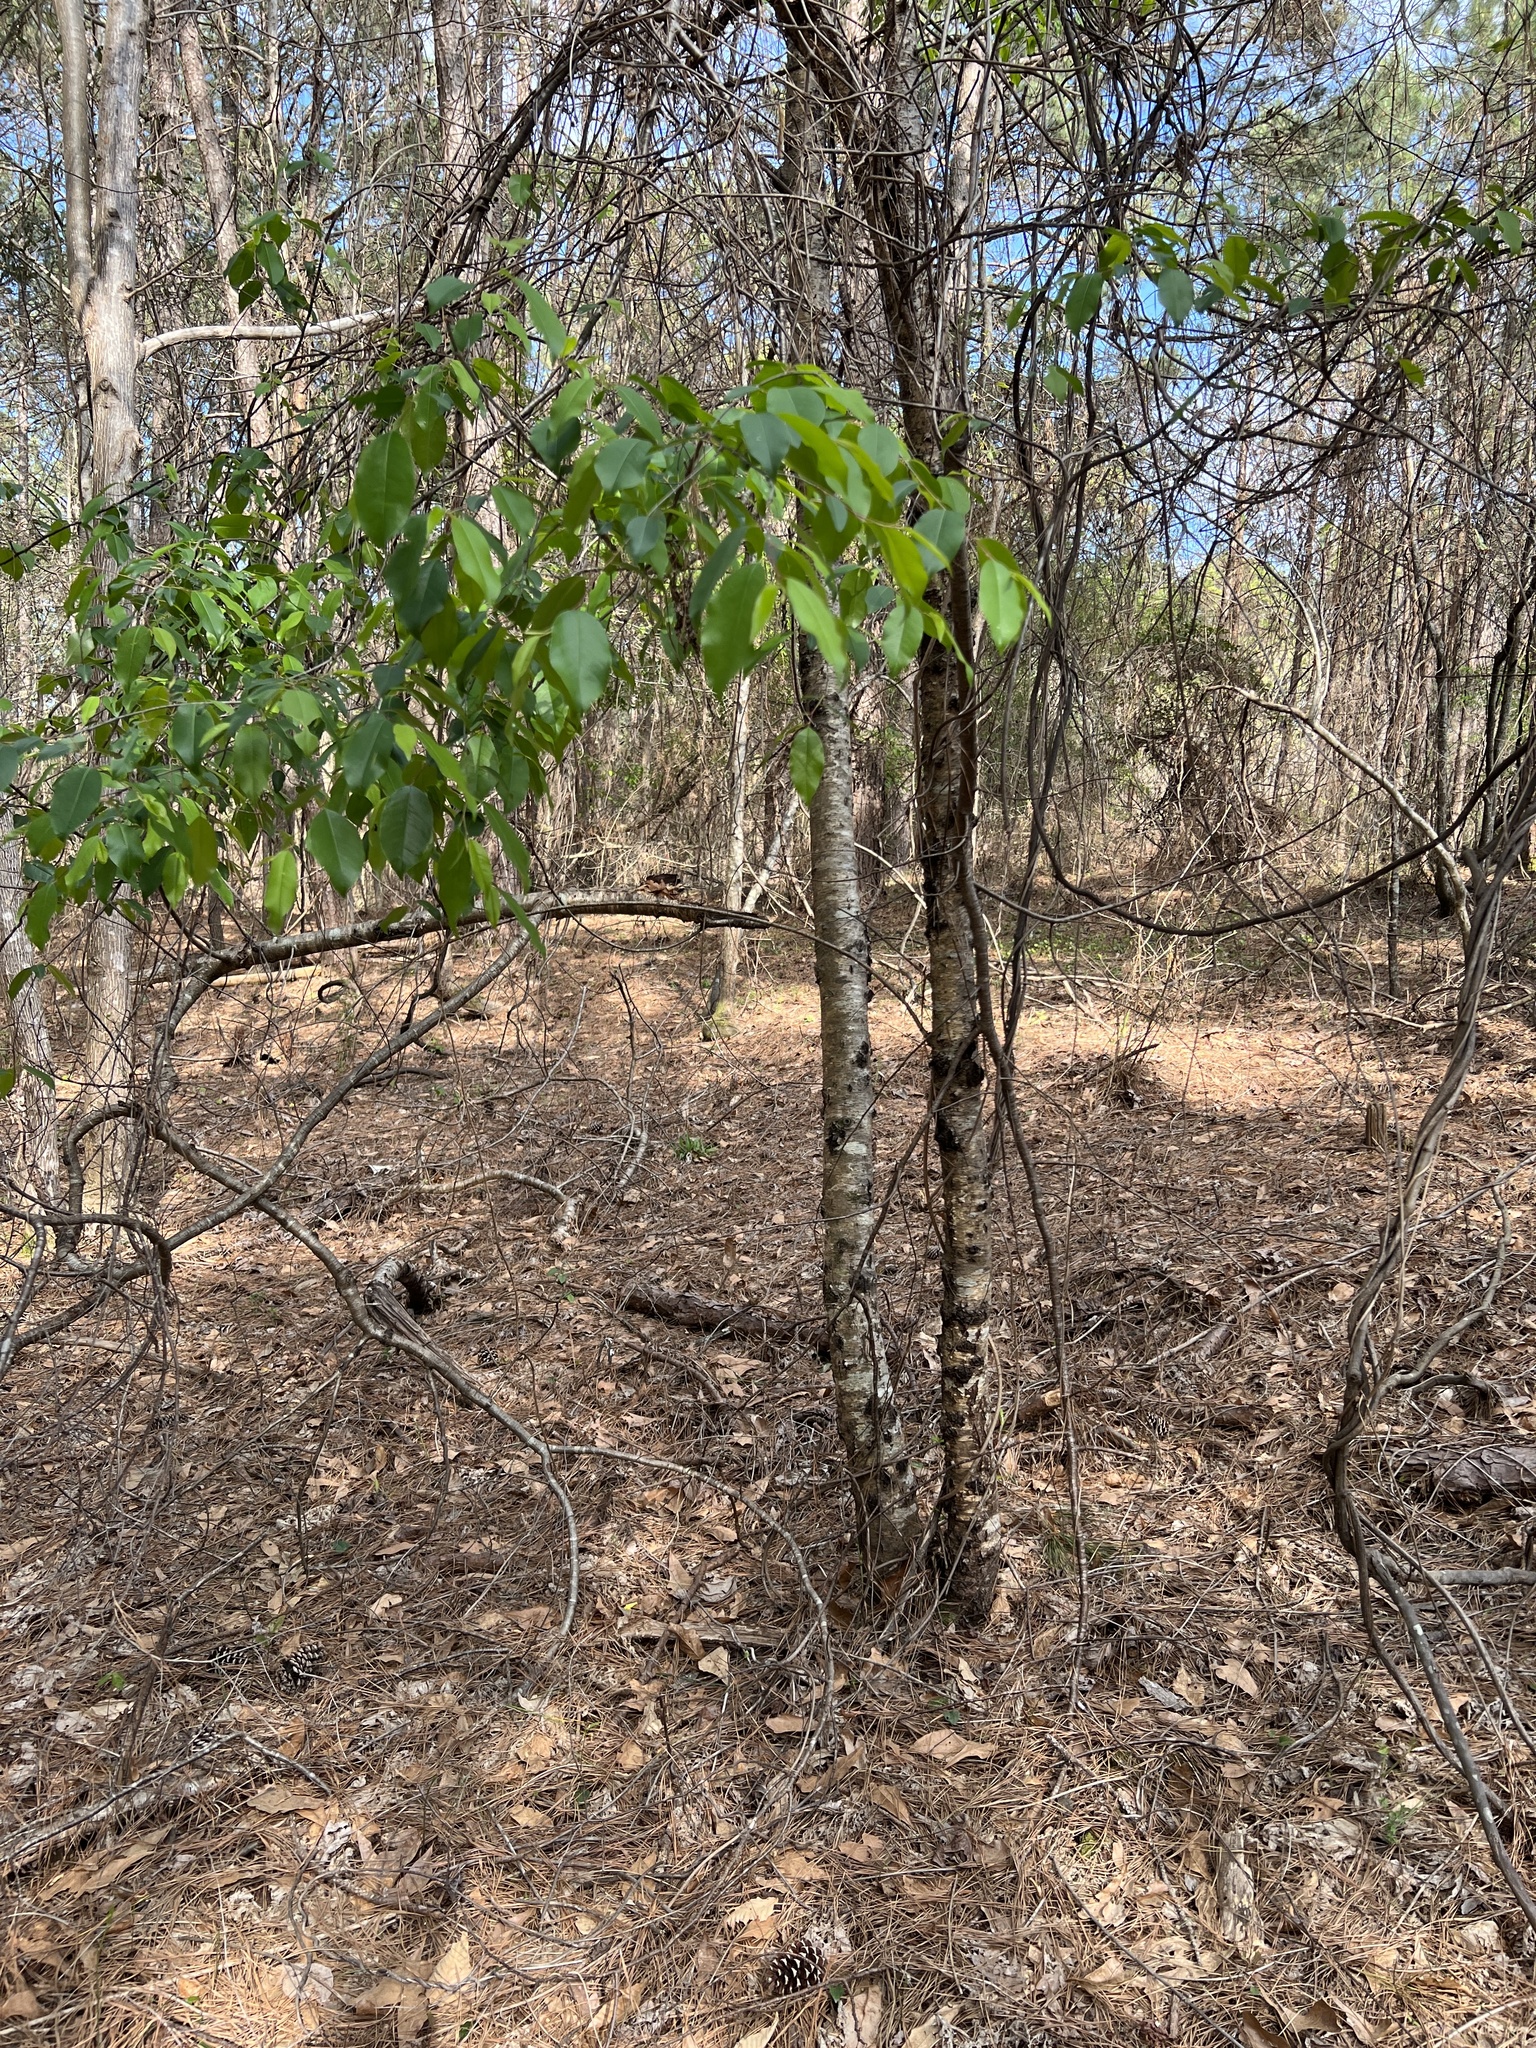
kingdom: Plantae
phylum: Tracheophyta
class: Magnoliopsida
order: Aquifoliales
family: Aquifoliaceae
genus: Ilex
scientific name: Ilex decidua
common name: Possum-haw
